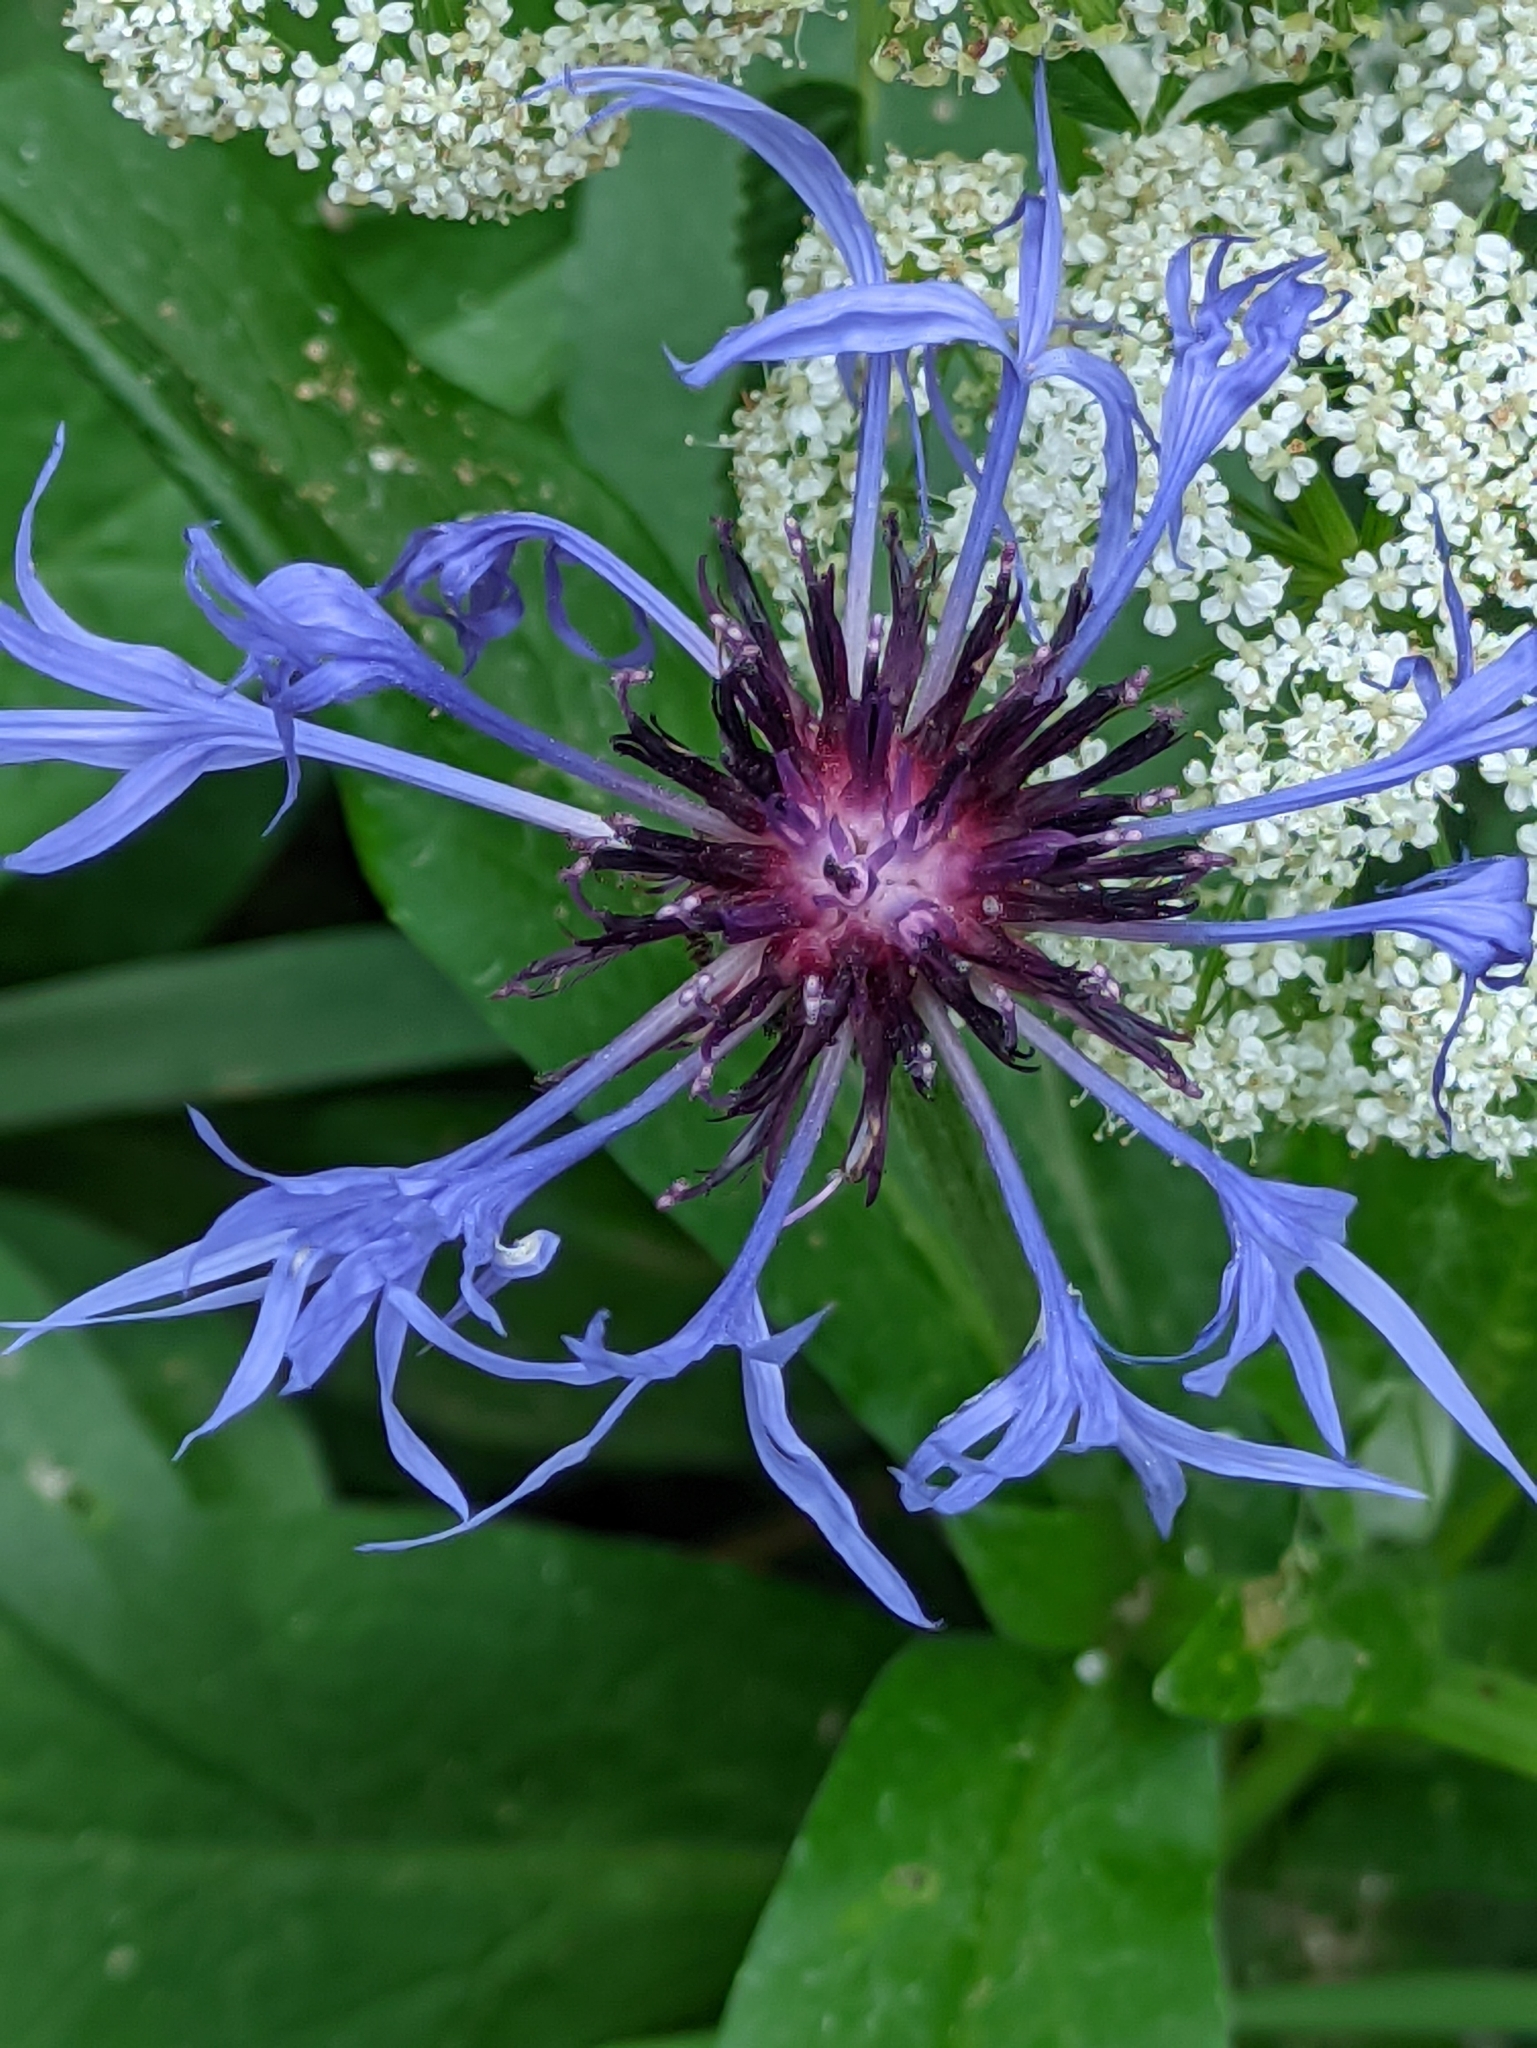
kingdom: Plantae
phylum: Tracheophyta
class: Magnoliopsida
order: Asterales
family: Asteraceae
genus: Centaurea
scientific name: Centaurea montana
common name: Perennial cornflower
